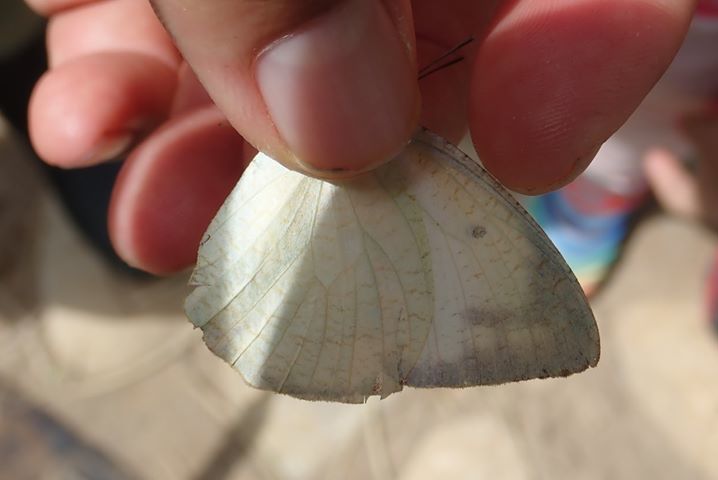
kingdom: Animalia
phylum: Arthropoda
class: Insecta
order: Lepidoptera
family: Pieridae
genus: Catopsilia
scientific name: Catopsilia pyranthe
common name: Mottled emigrant
